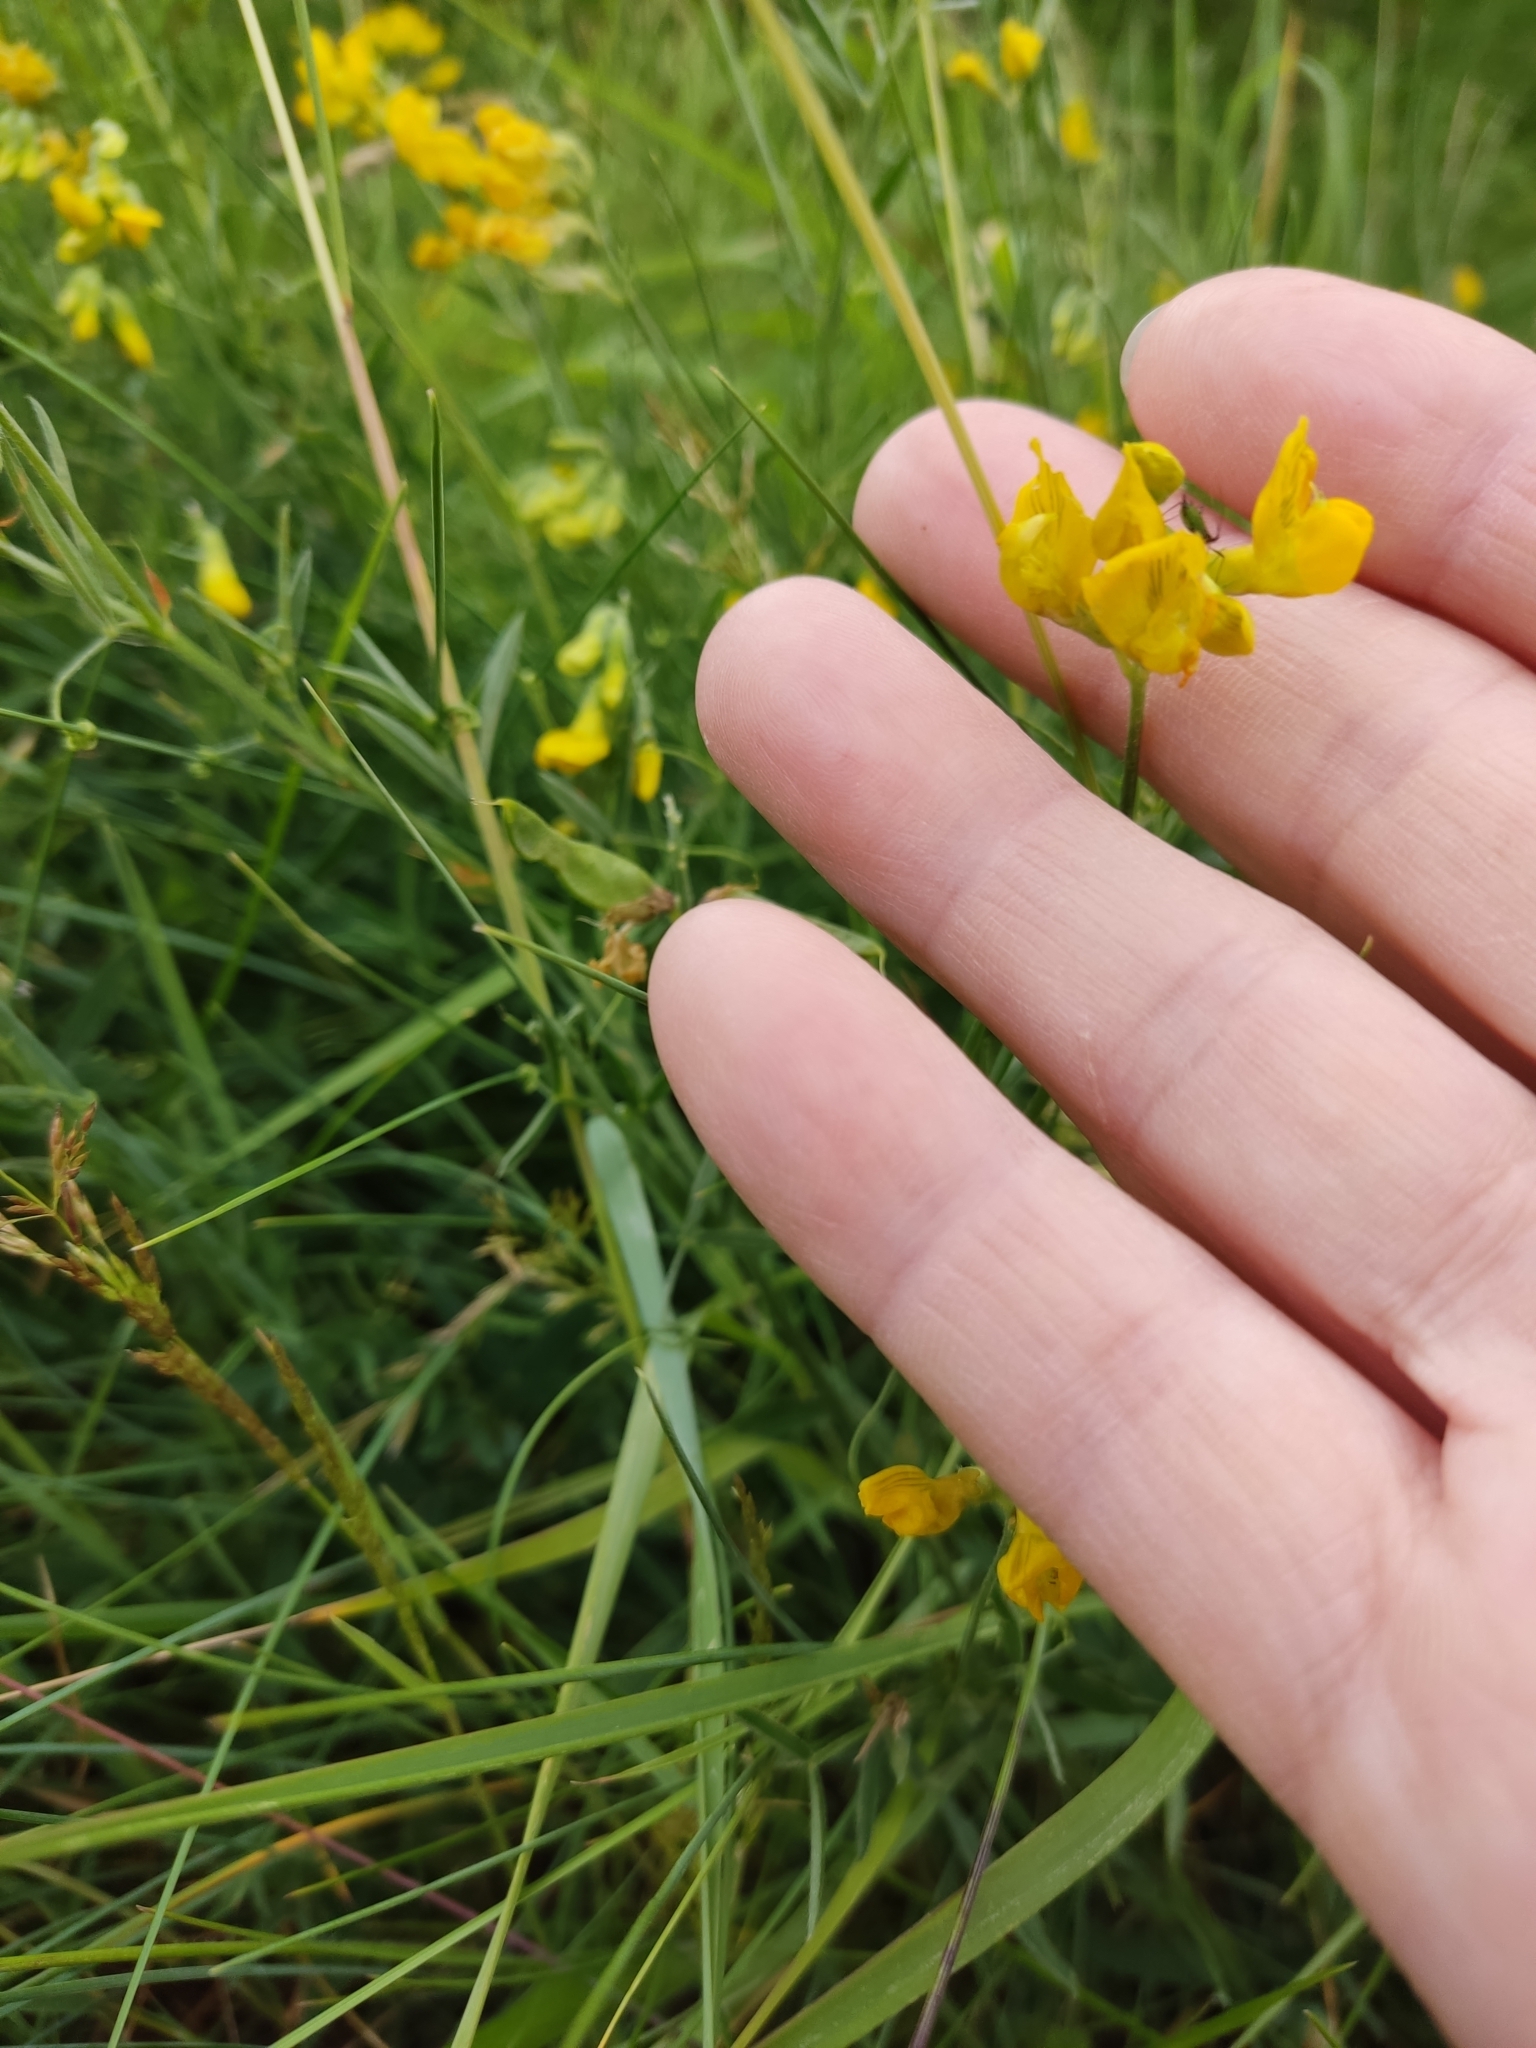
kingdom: Plantae
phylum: Tracheophyta
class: Magnoliopsida
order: Fabales
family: Fabaceae
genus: Lathyrus
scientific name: Lathyrus pratensis
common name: Meadow vetchling
